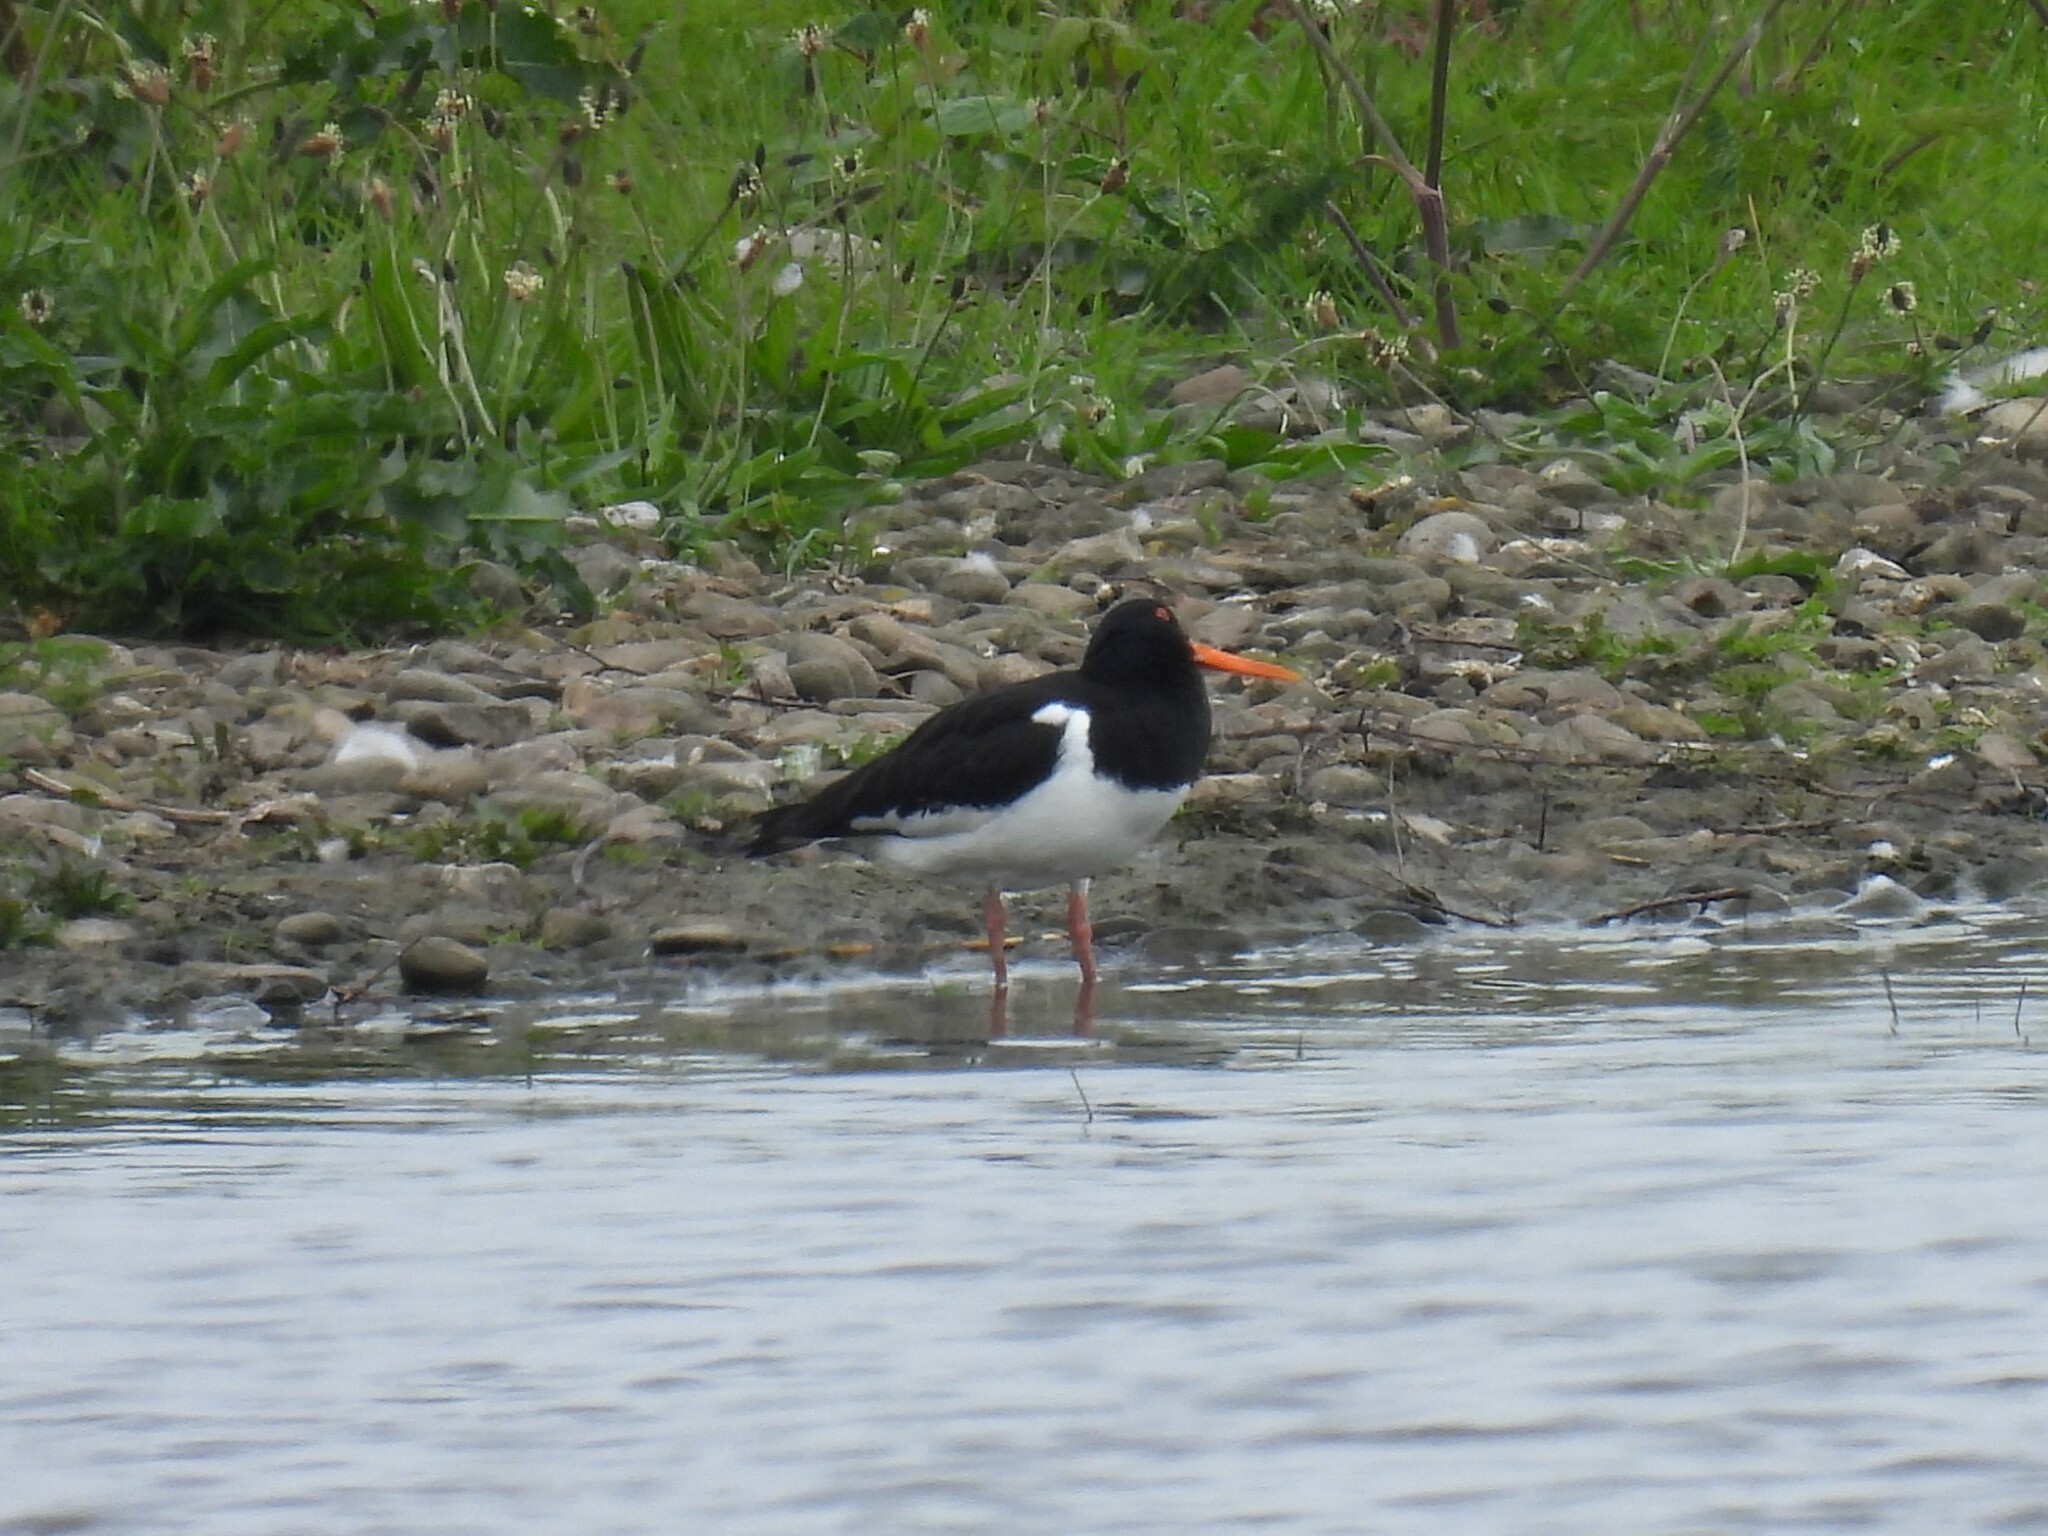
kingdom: Animalia
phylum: Chordata
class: Aves
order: Charadriiformes
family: Haematopodidae
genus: Haematopus
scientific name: Haematopus ostralegus
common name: Eurasian oystercatcher
